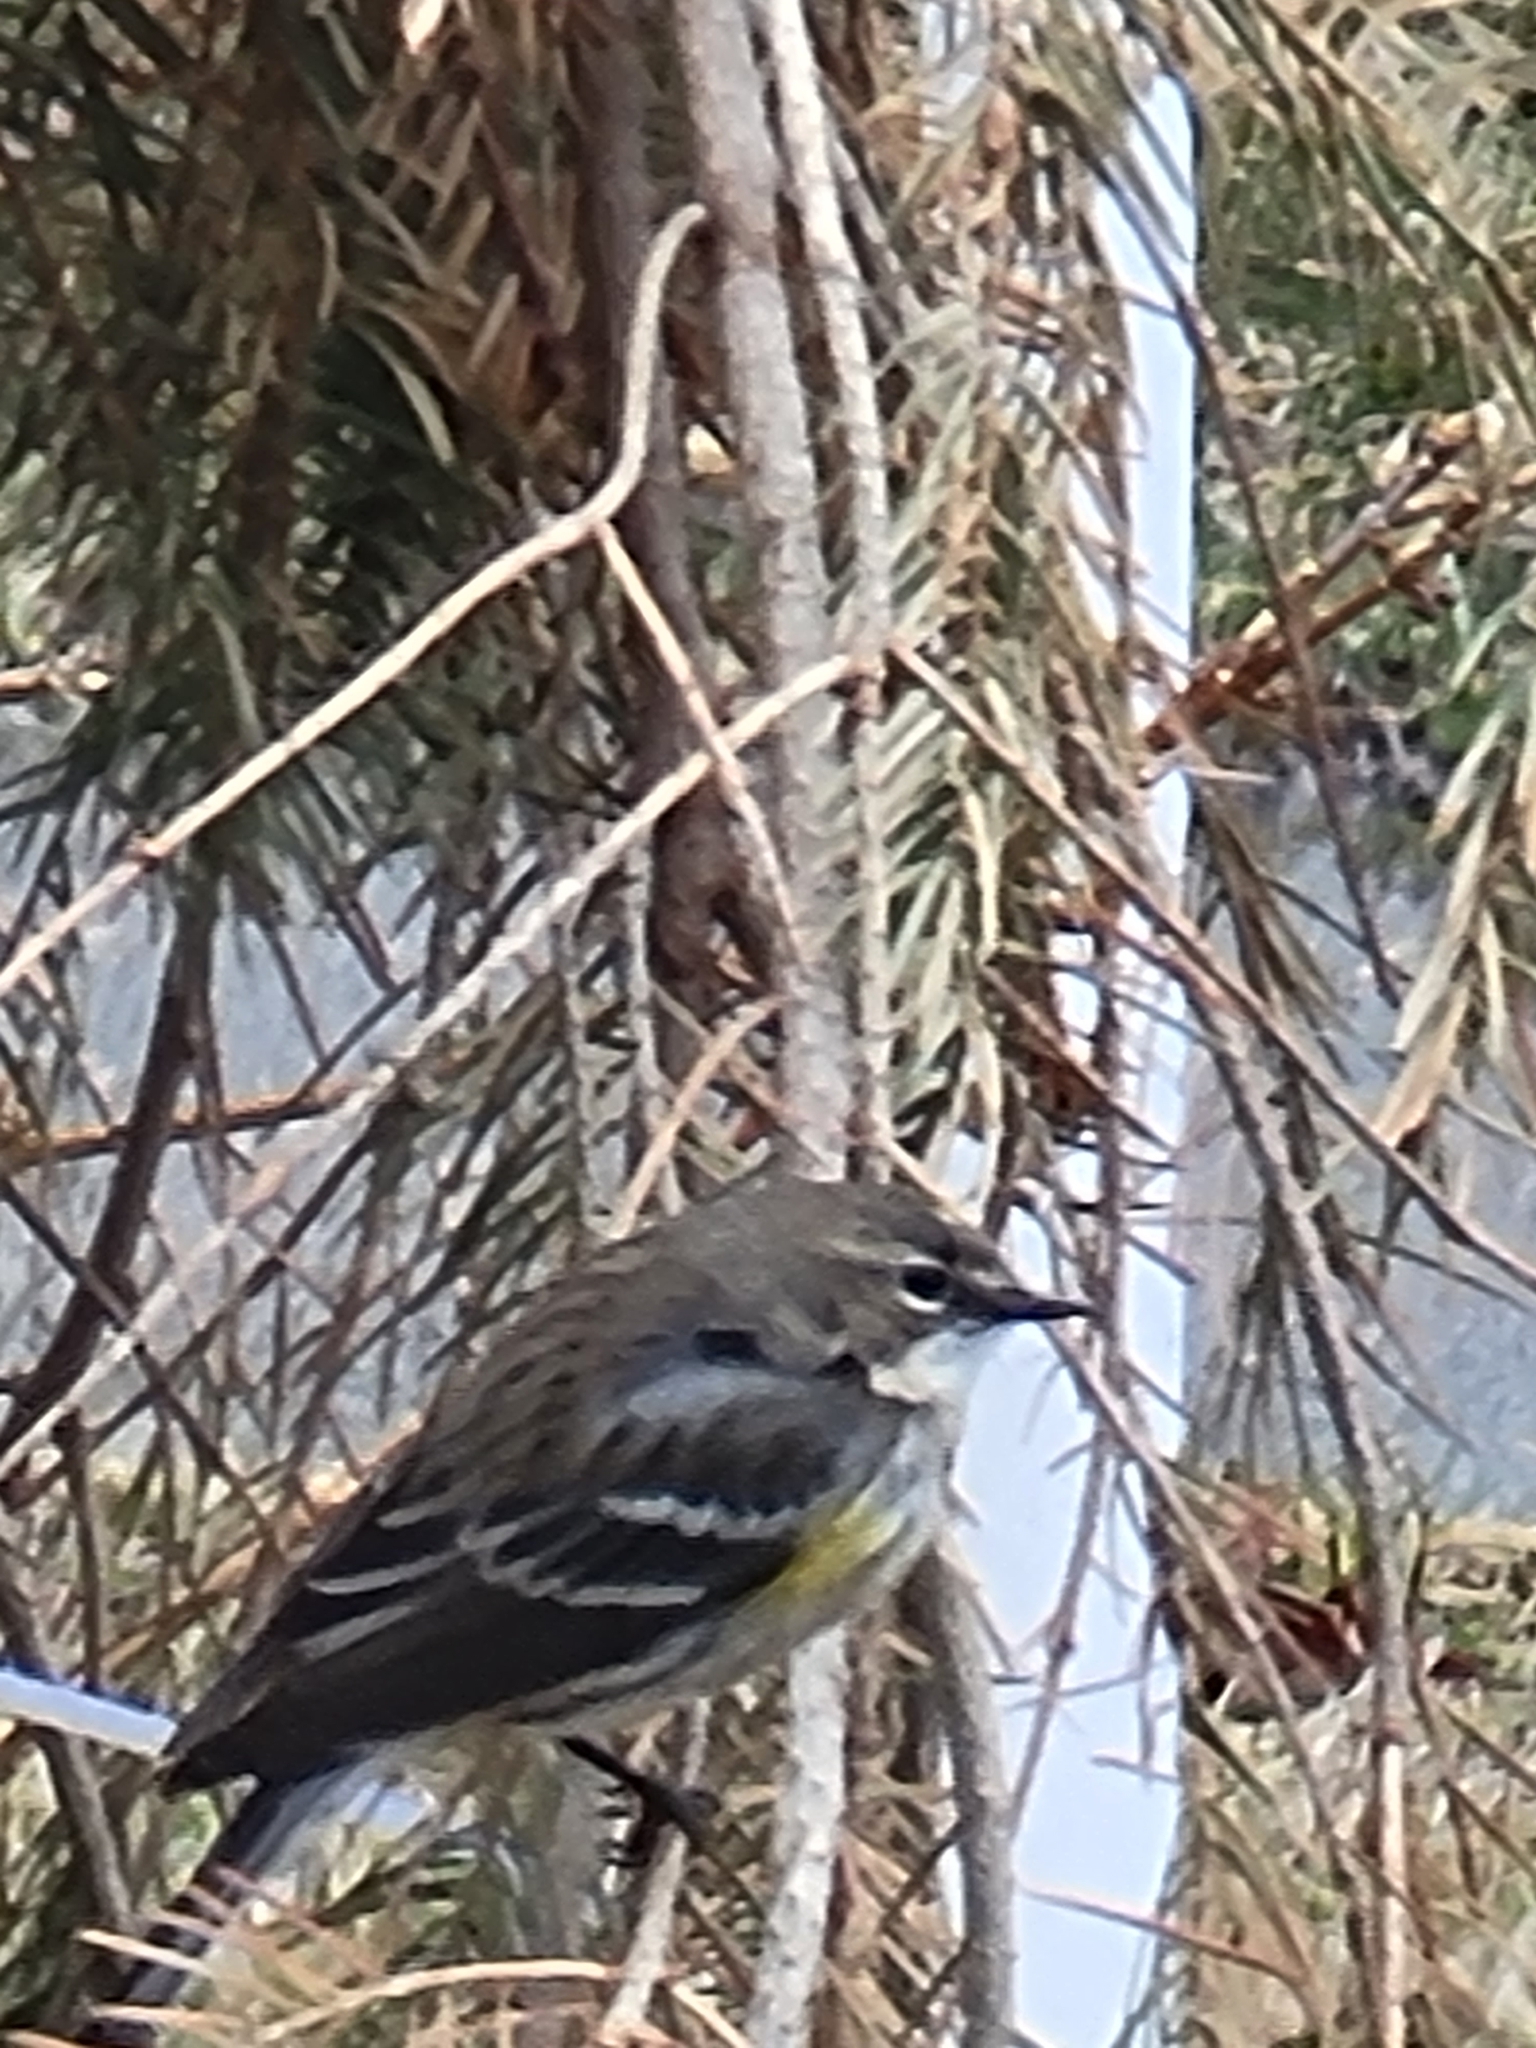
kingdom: Animalia
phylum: Chordata
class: Aves
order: Passeriformes
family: Parulidae
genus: Setophaga
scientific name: Setophaga coronata
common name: Myrtle warbler
